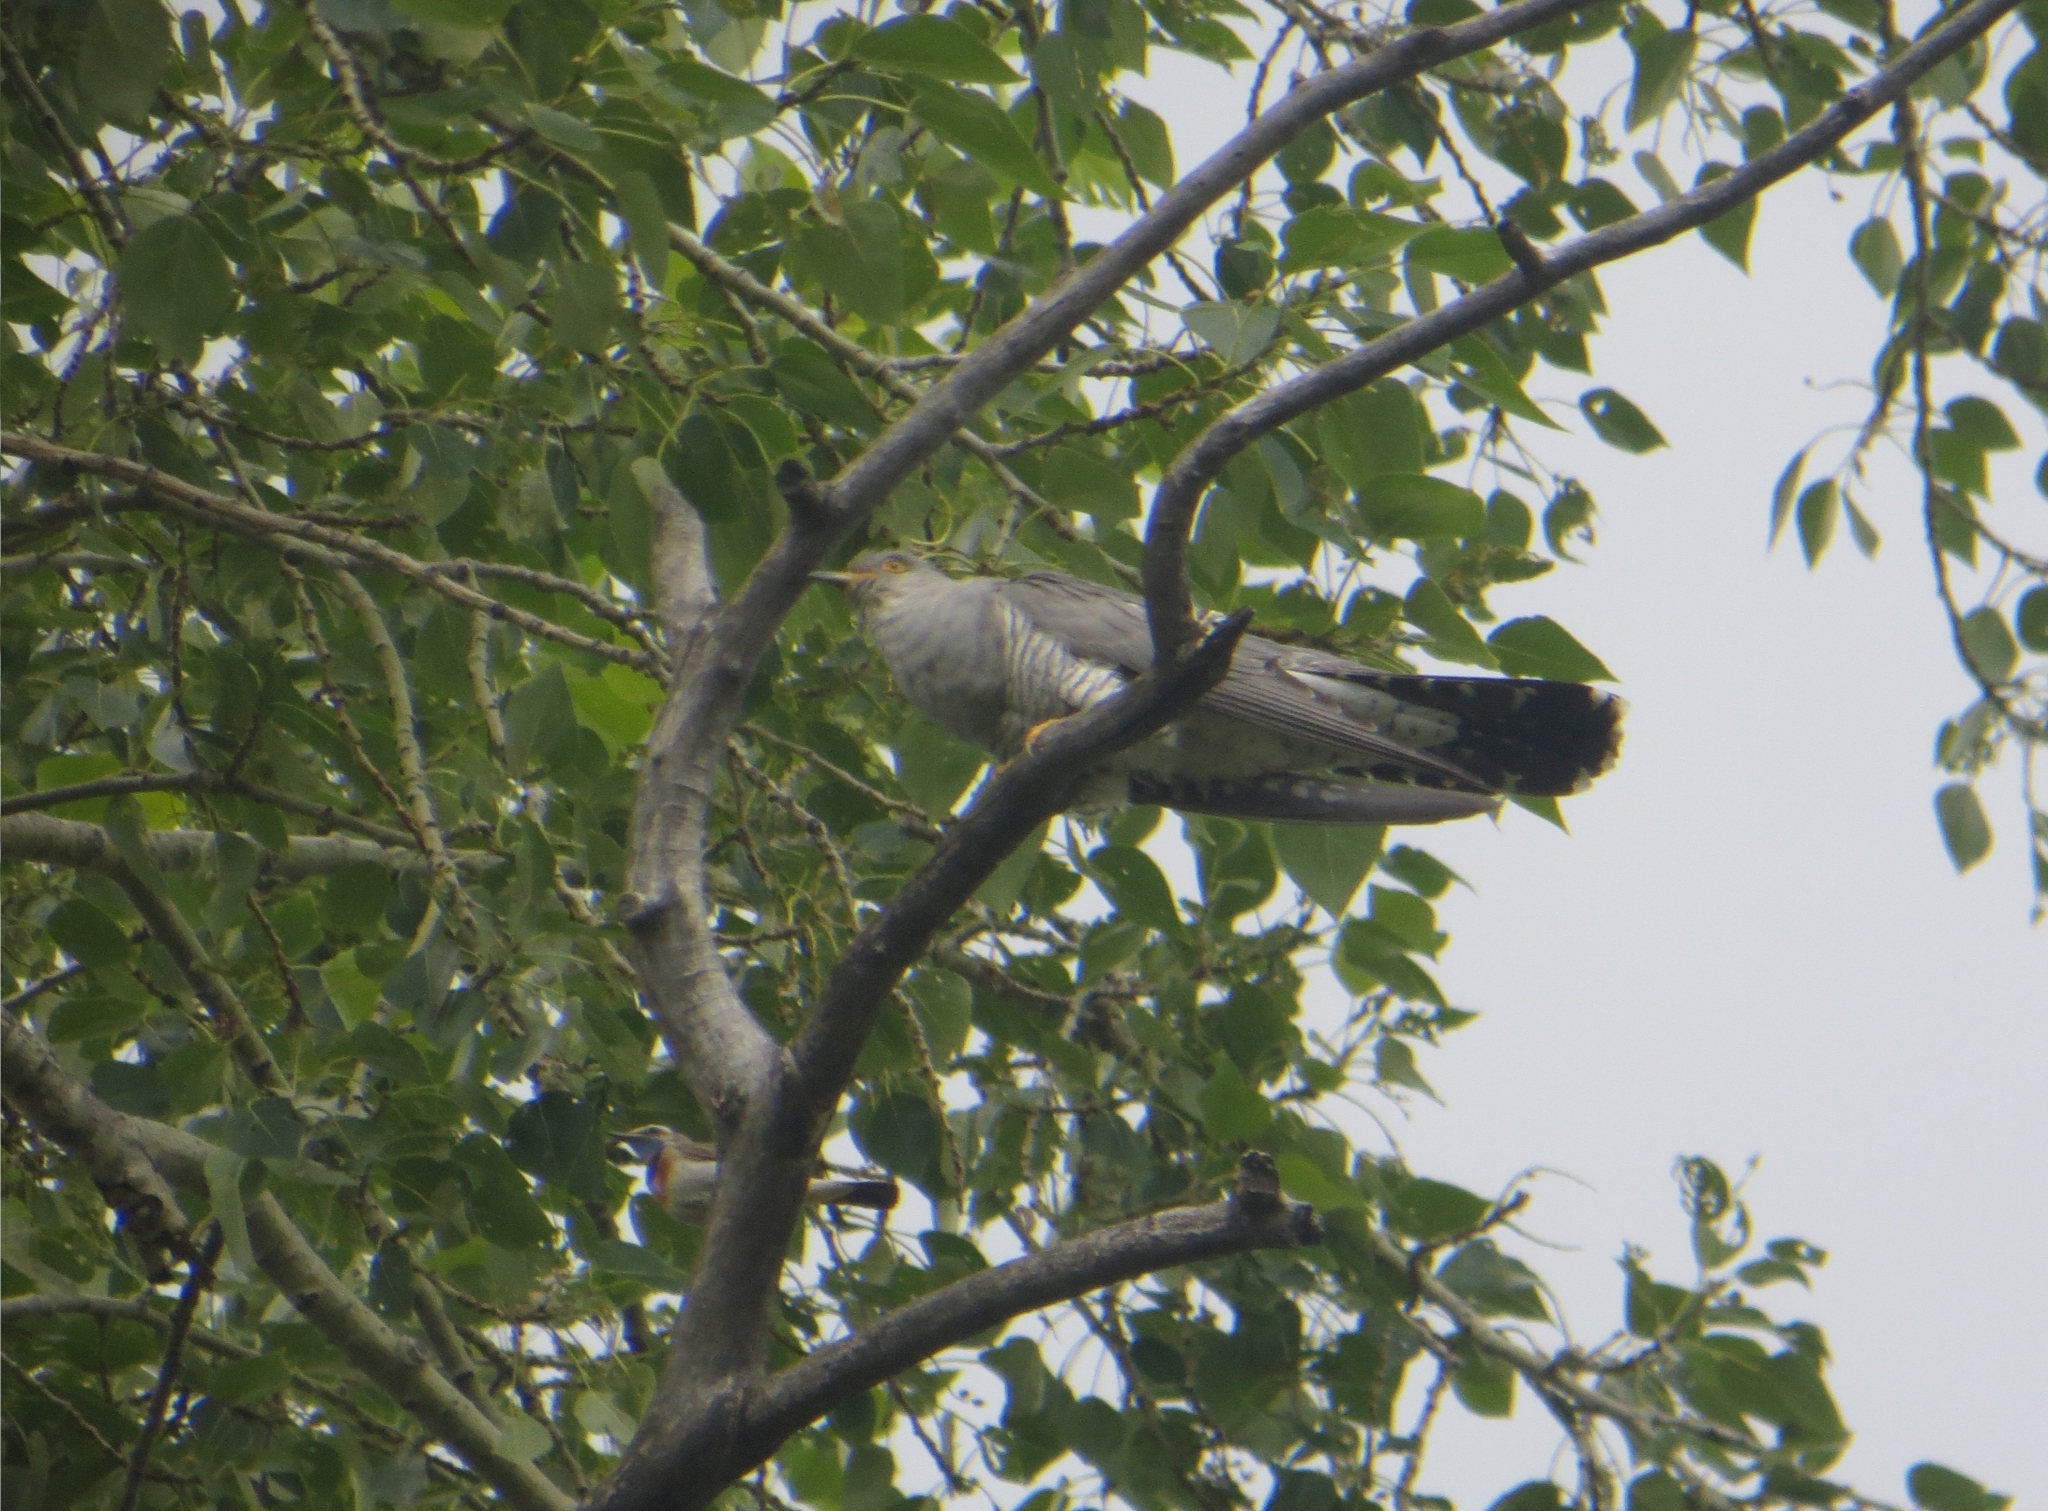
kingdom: Animalia
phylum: Chordata
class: Aves
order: Cuculiformes
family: Cuculidae
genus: Cuculus
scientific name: Cuculus canorus
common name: Common cuckoo
